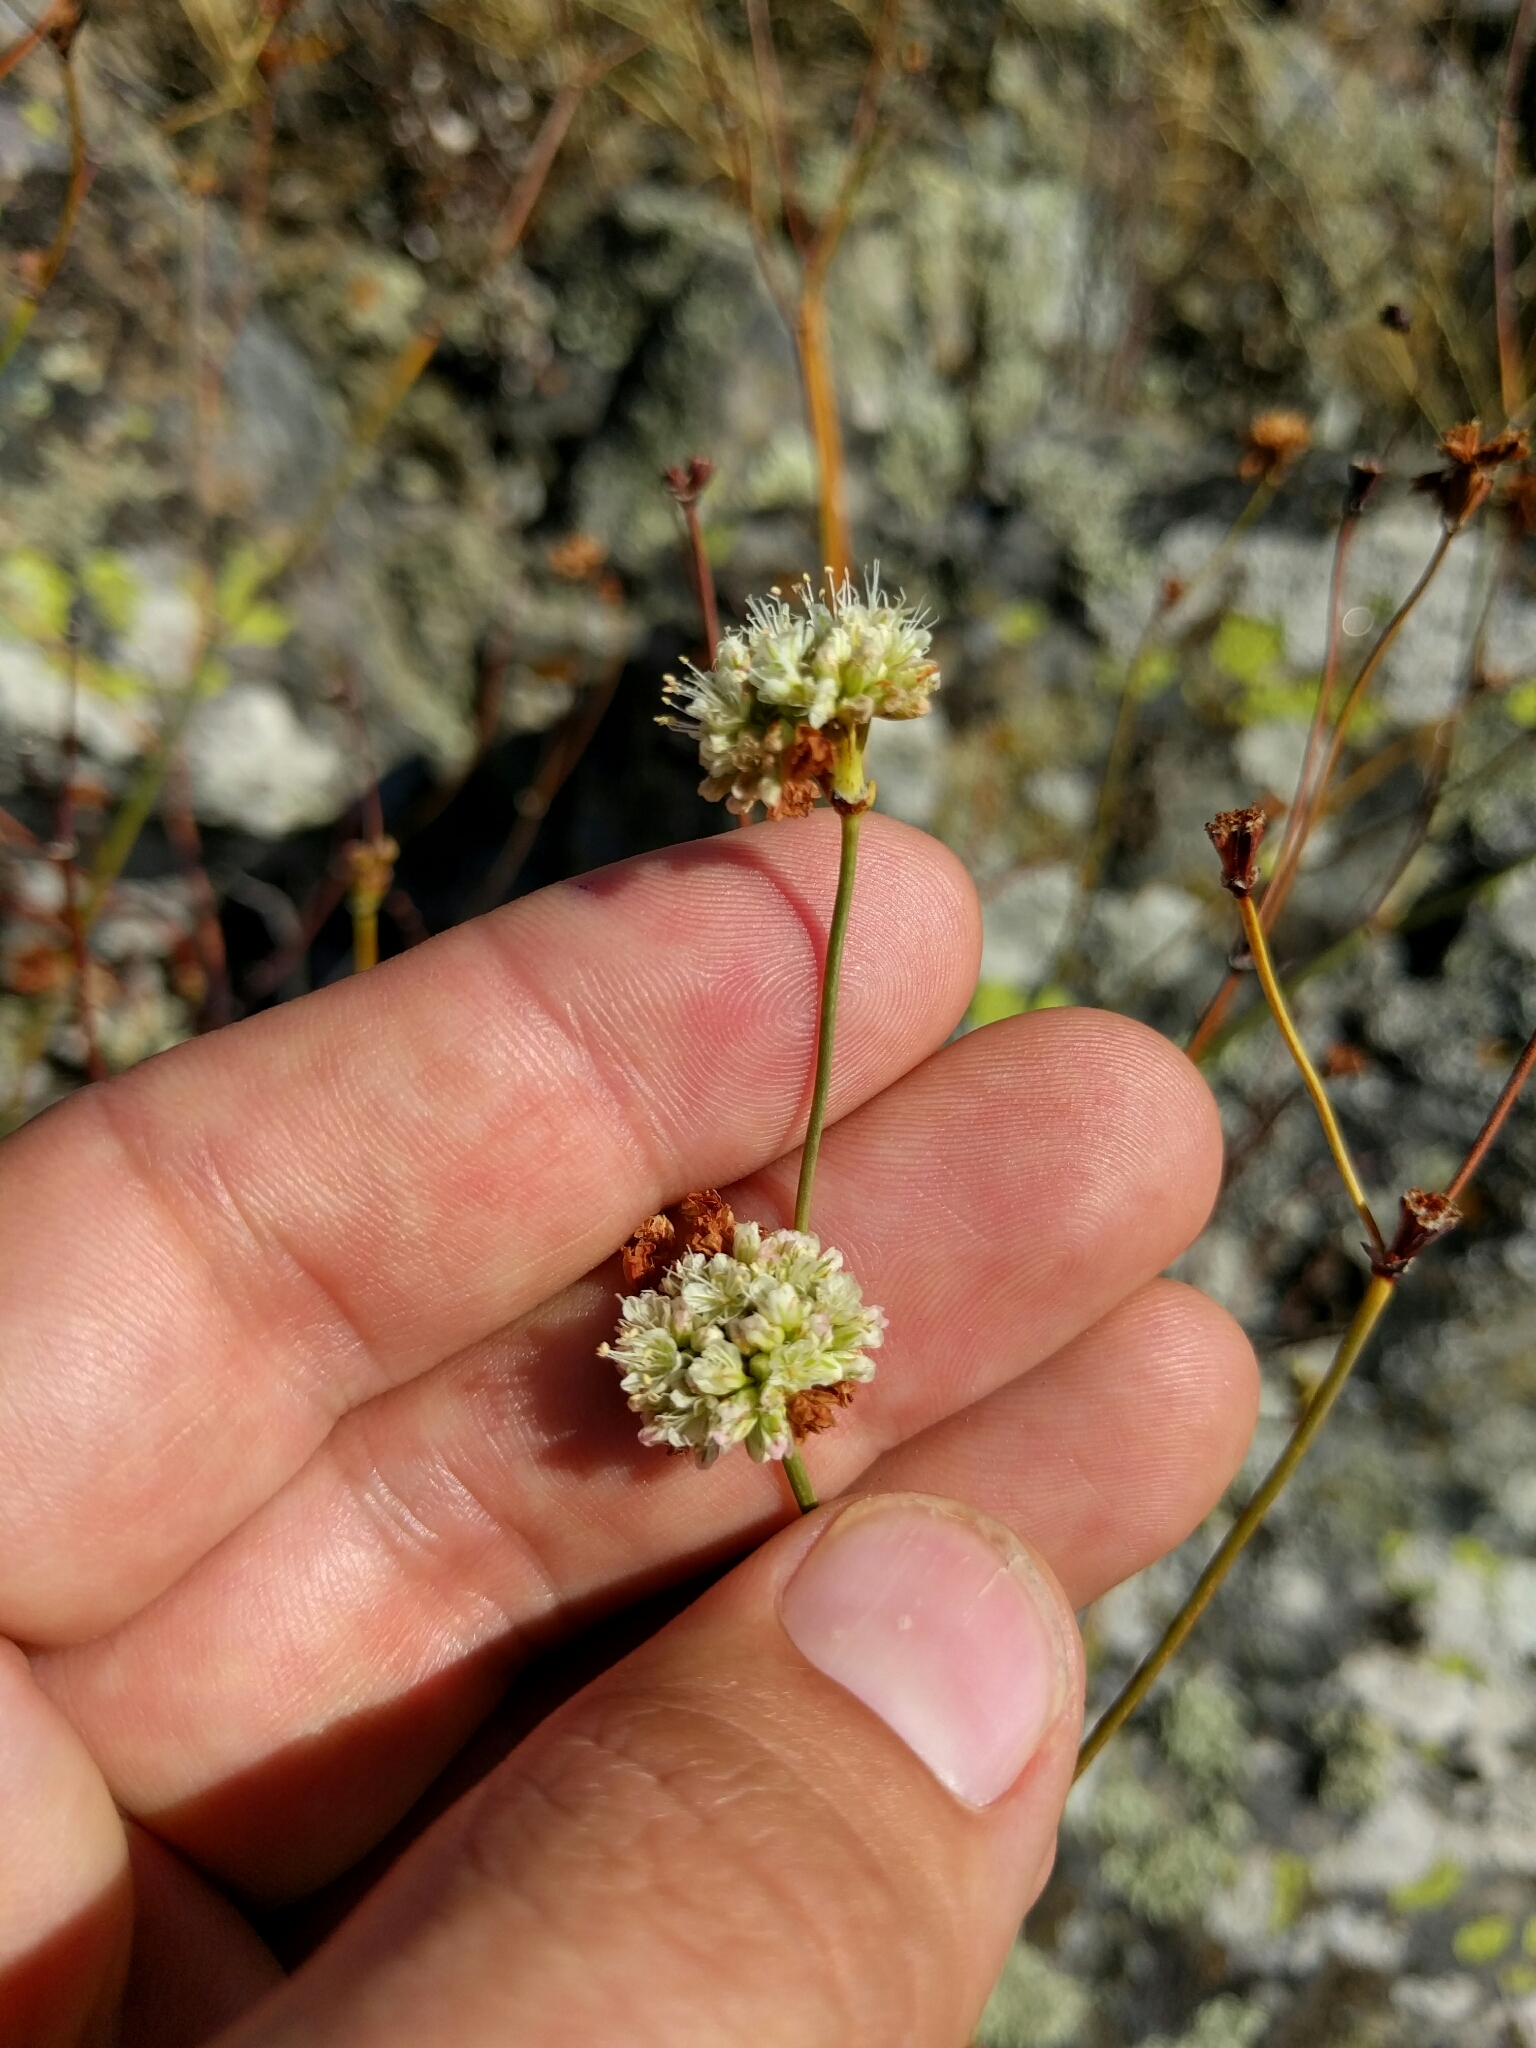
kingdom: Plantae
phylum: Tracheophyta
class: Magnoliopsida
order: Caryophyllales
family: Polygonaceae
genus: Eriogonum
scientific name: Eriogonum nudum
